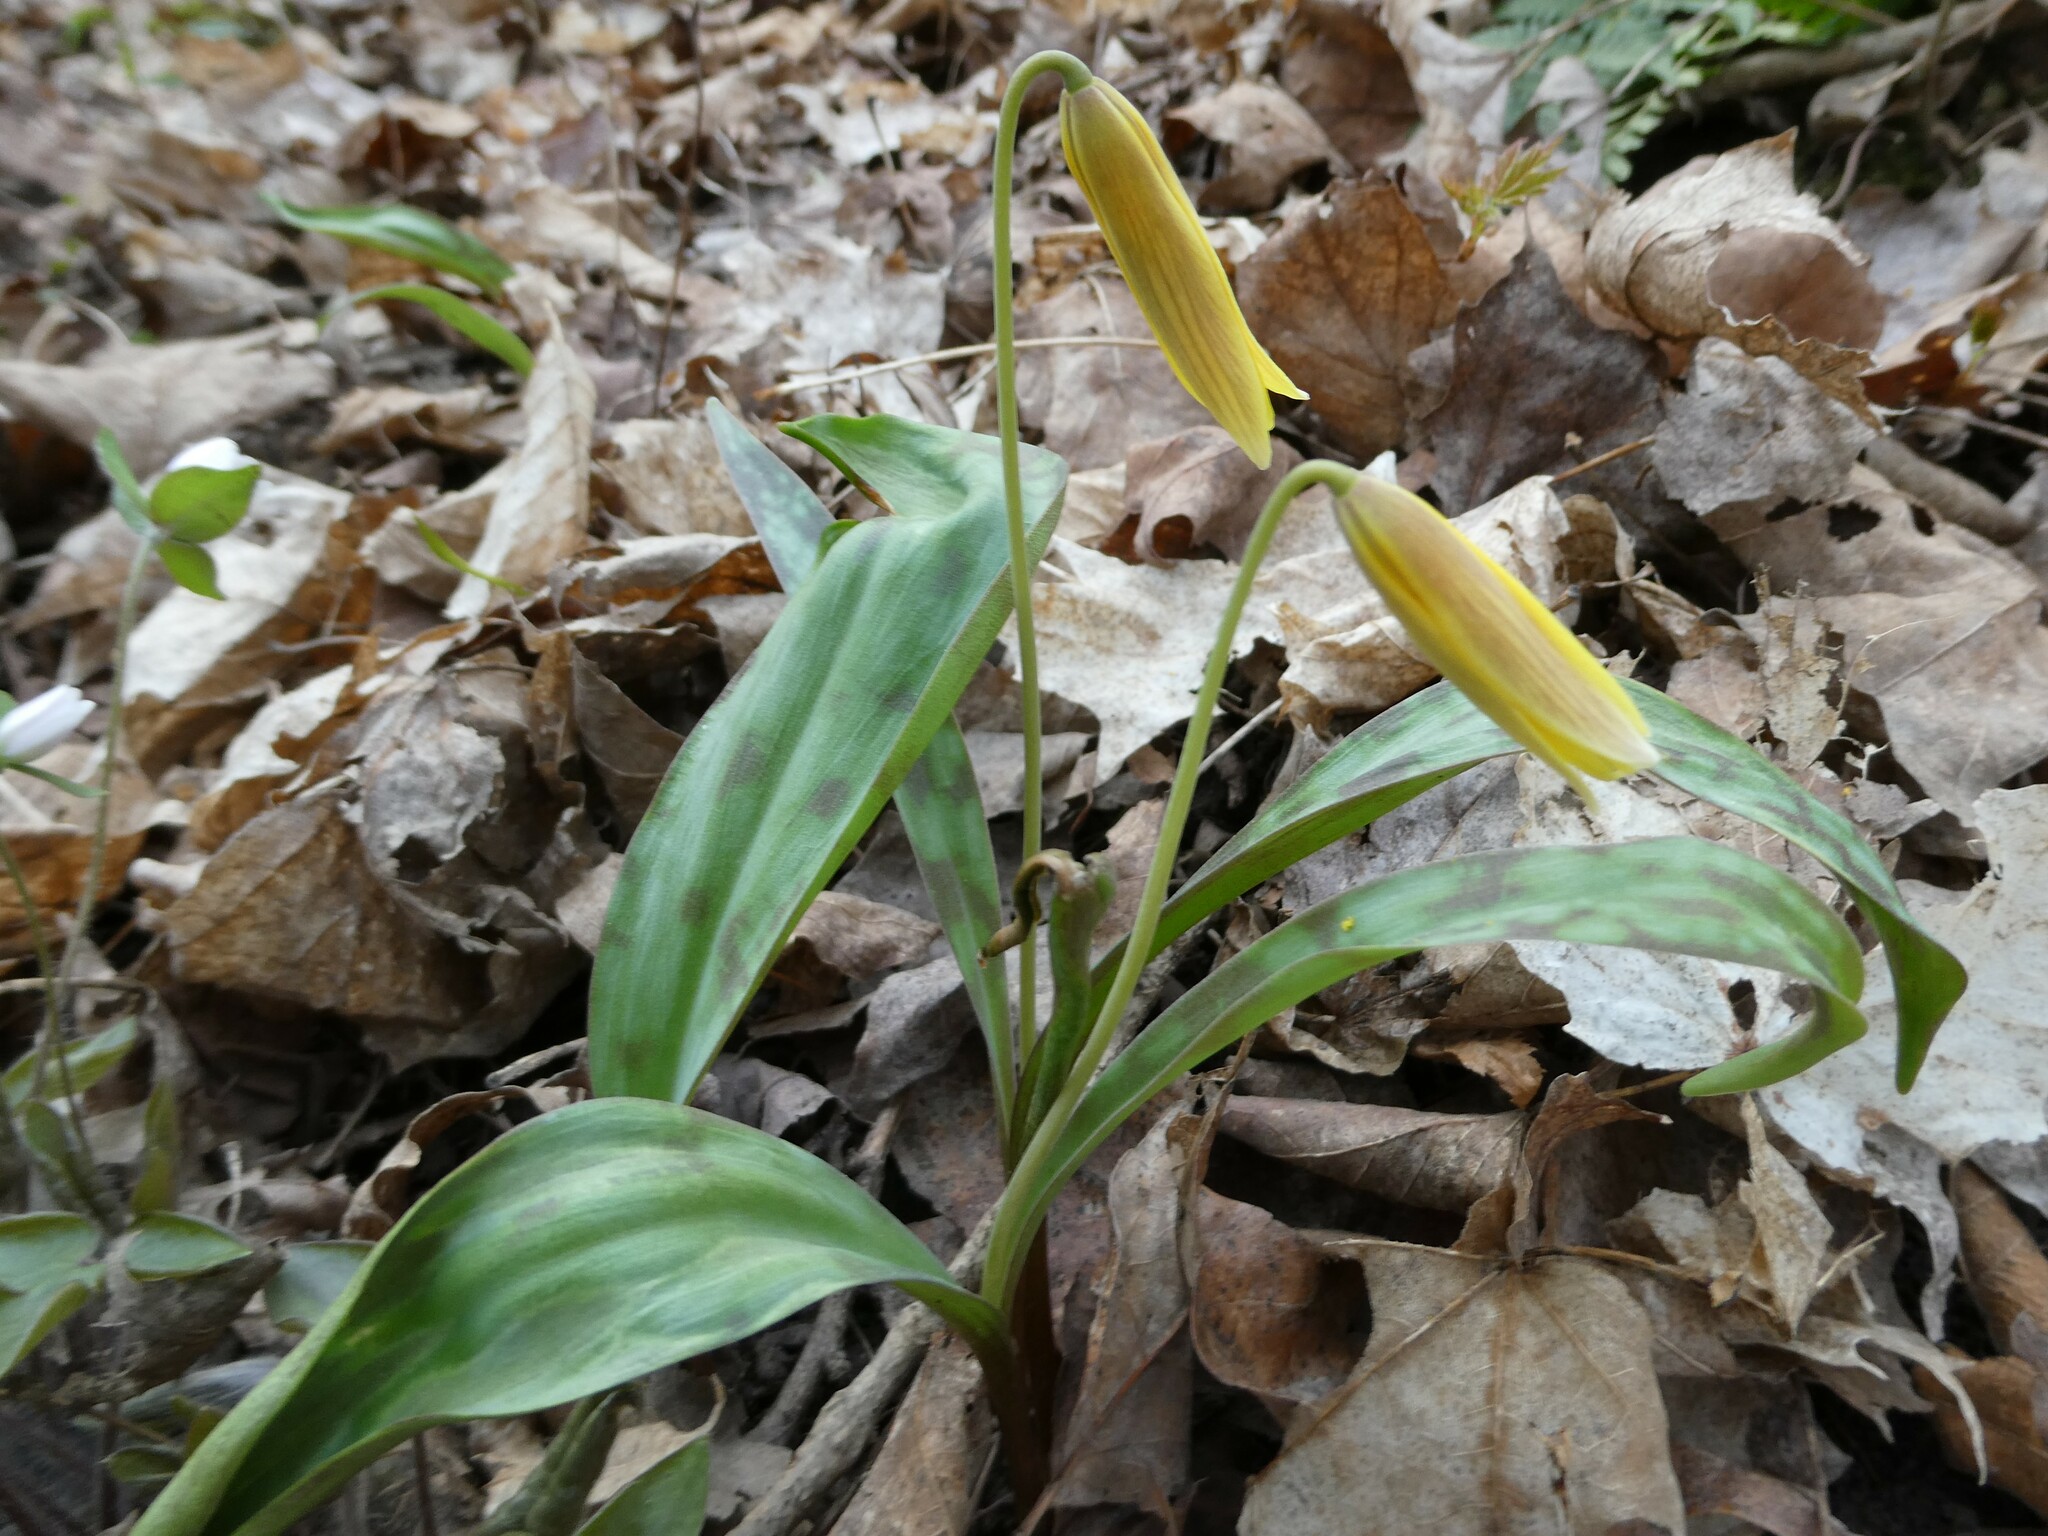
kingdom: Plantae
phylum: Tracheophyta
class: Liliopsida
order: Liliales
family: Liliaceae
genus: Erythronium
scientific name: Erythronium americanum
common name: Yellow adder's-tongue
